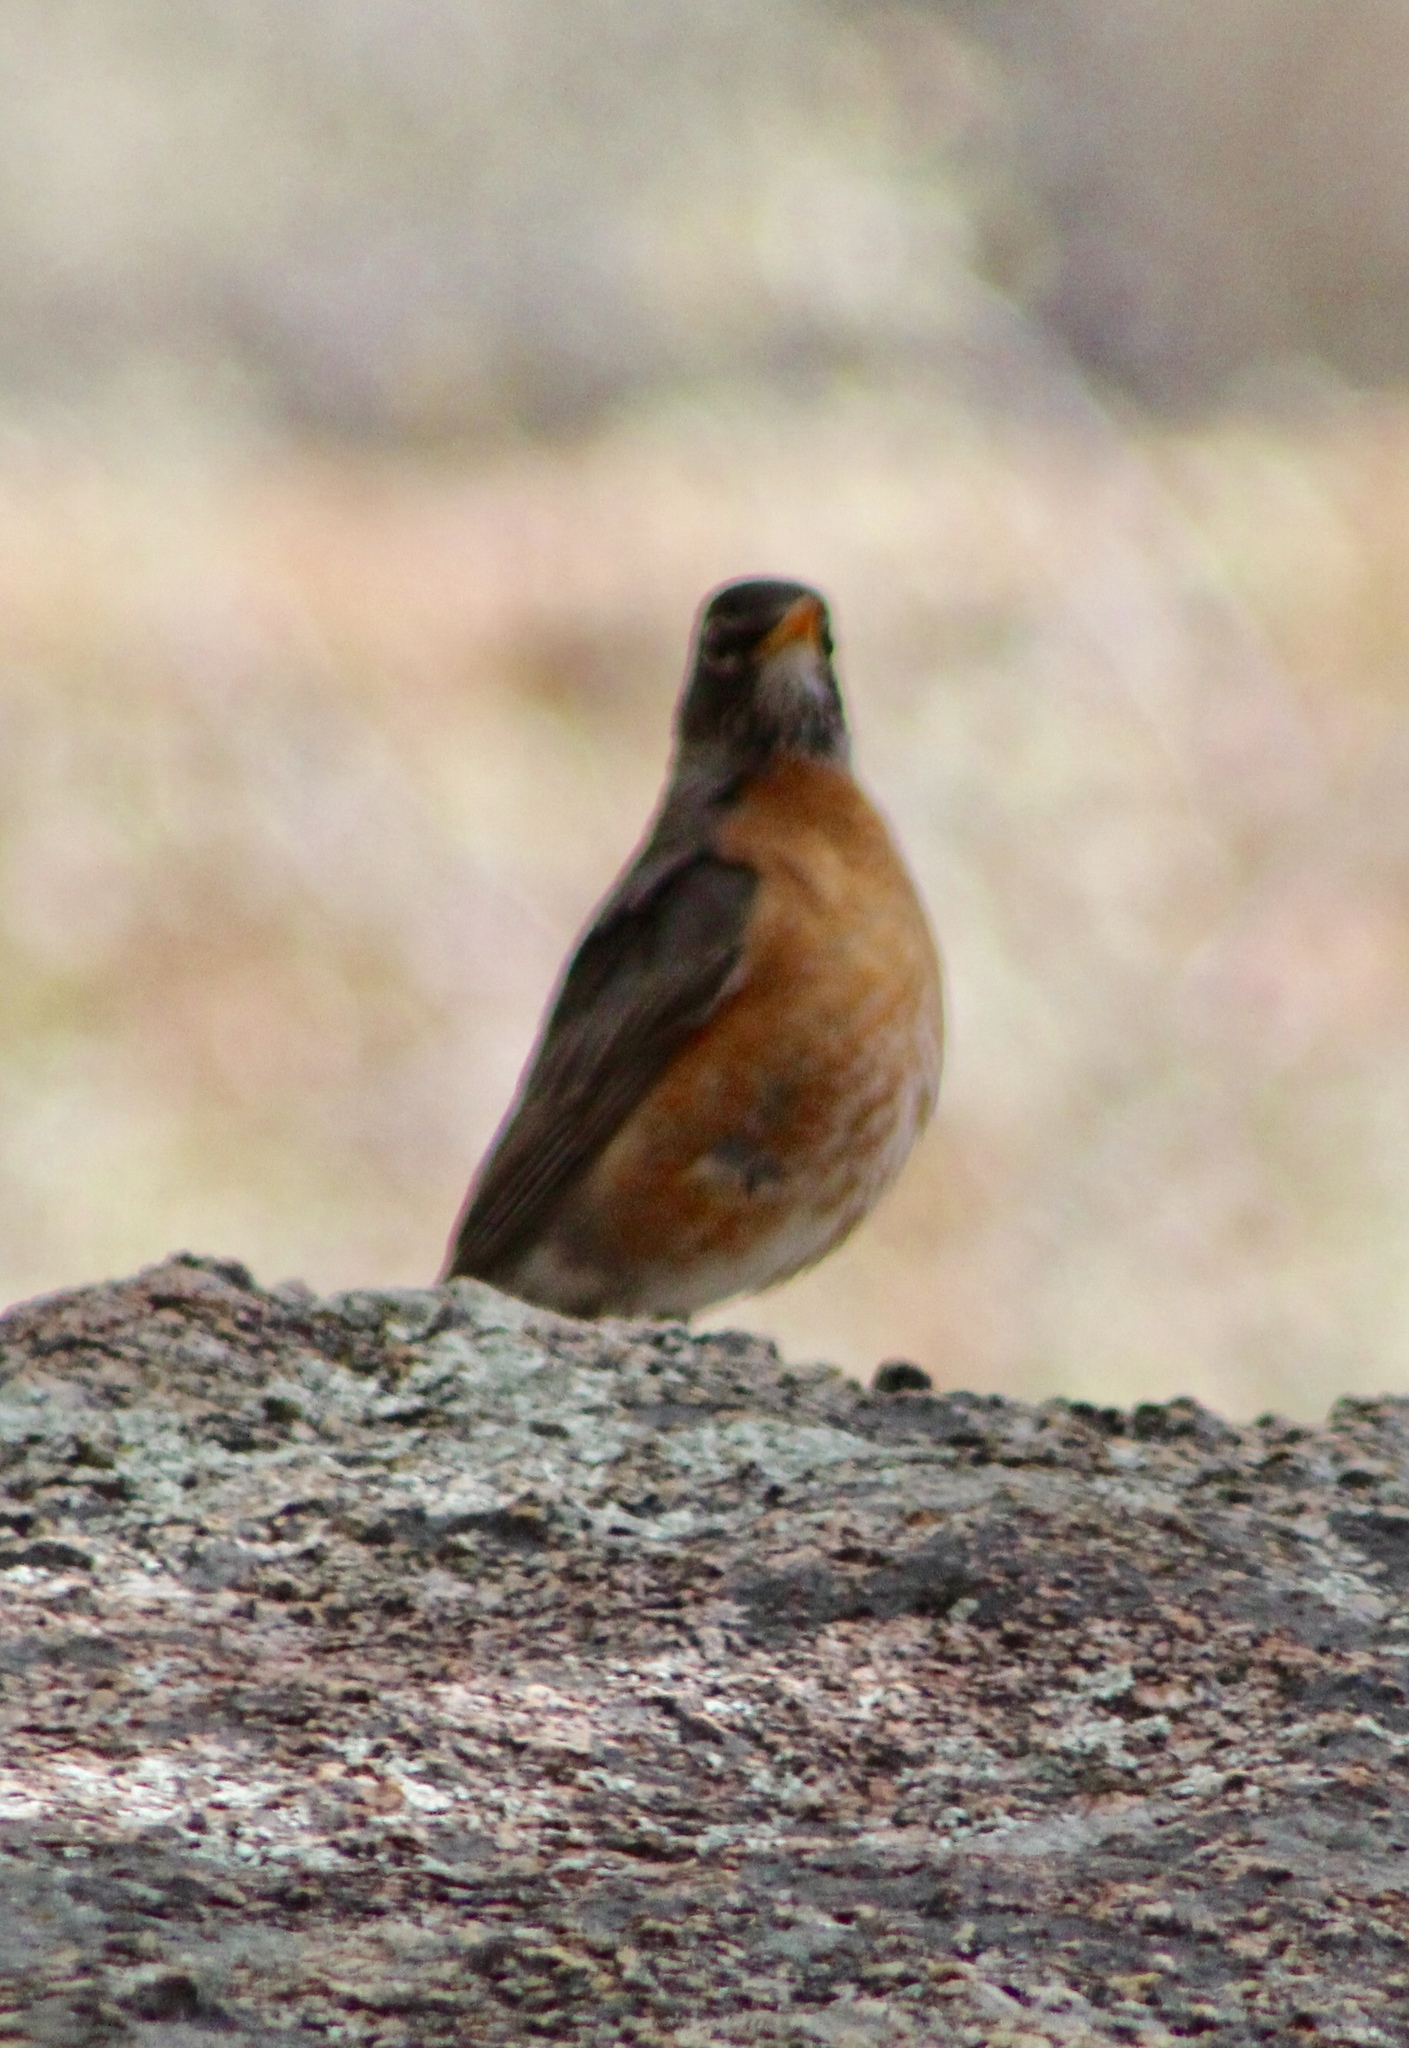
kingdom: Animalia
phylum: Chordata
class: Aves
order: Passeriformes
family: Turdidae
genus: Turdus
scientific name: Turdus migratorius
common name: American robin
